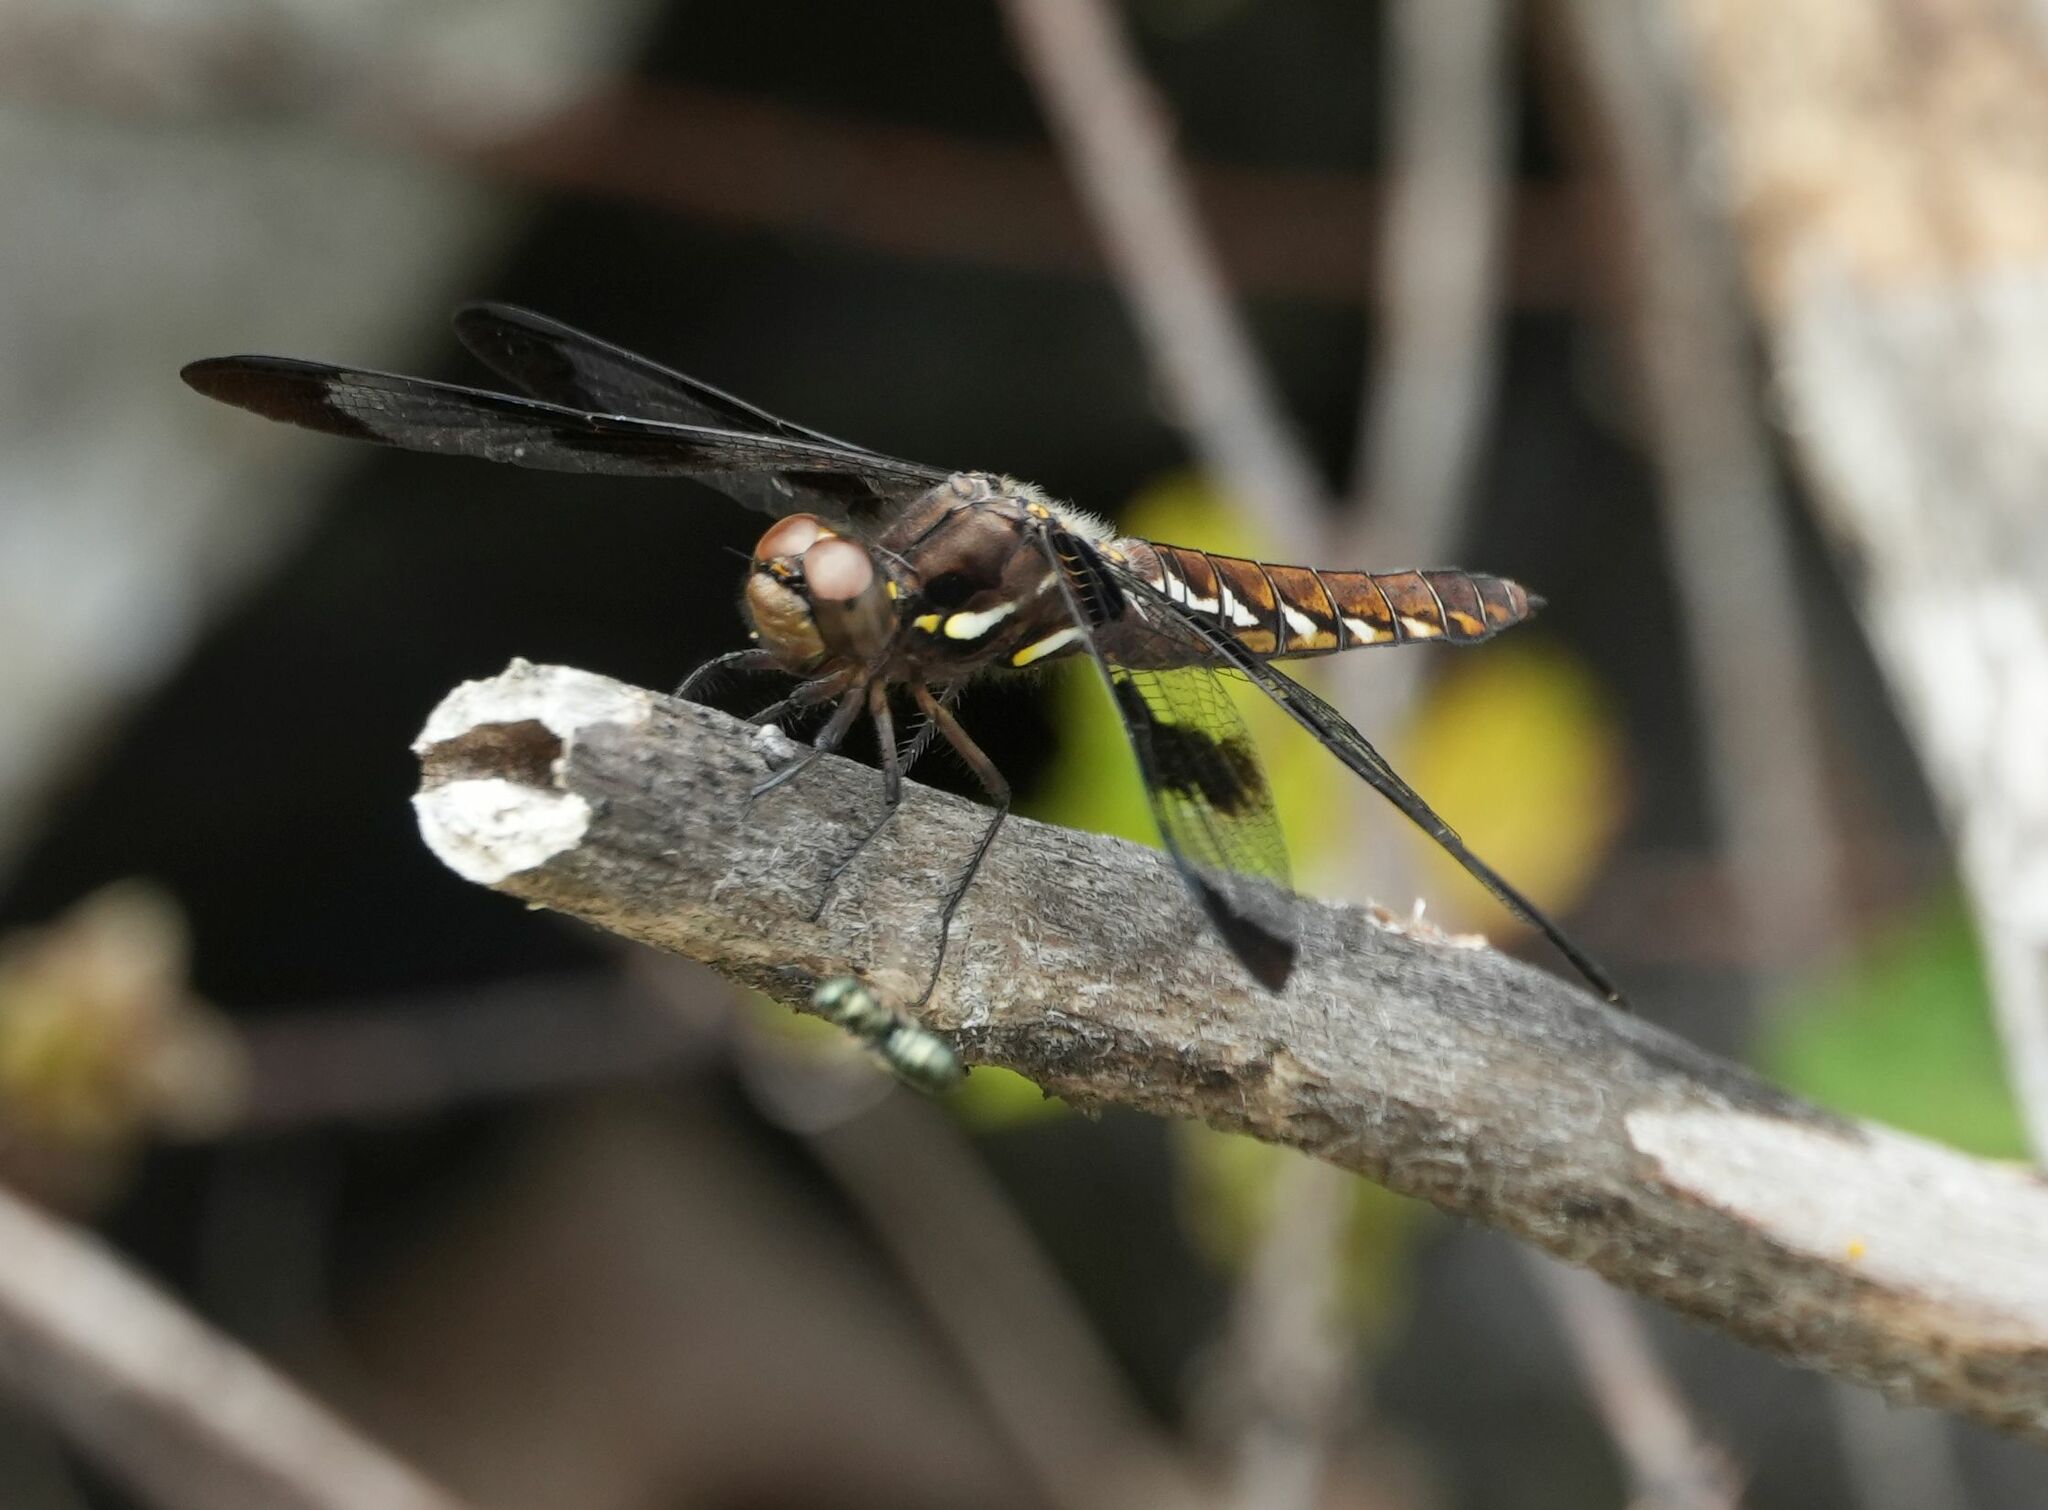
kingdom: Animalia
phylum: Arthropoda
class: Insecta
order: Odonata
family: Libellulidae
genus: Plathemis
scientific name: Plathemis lydia
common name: Common whitetail
